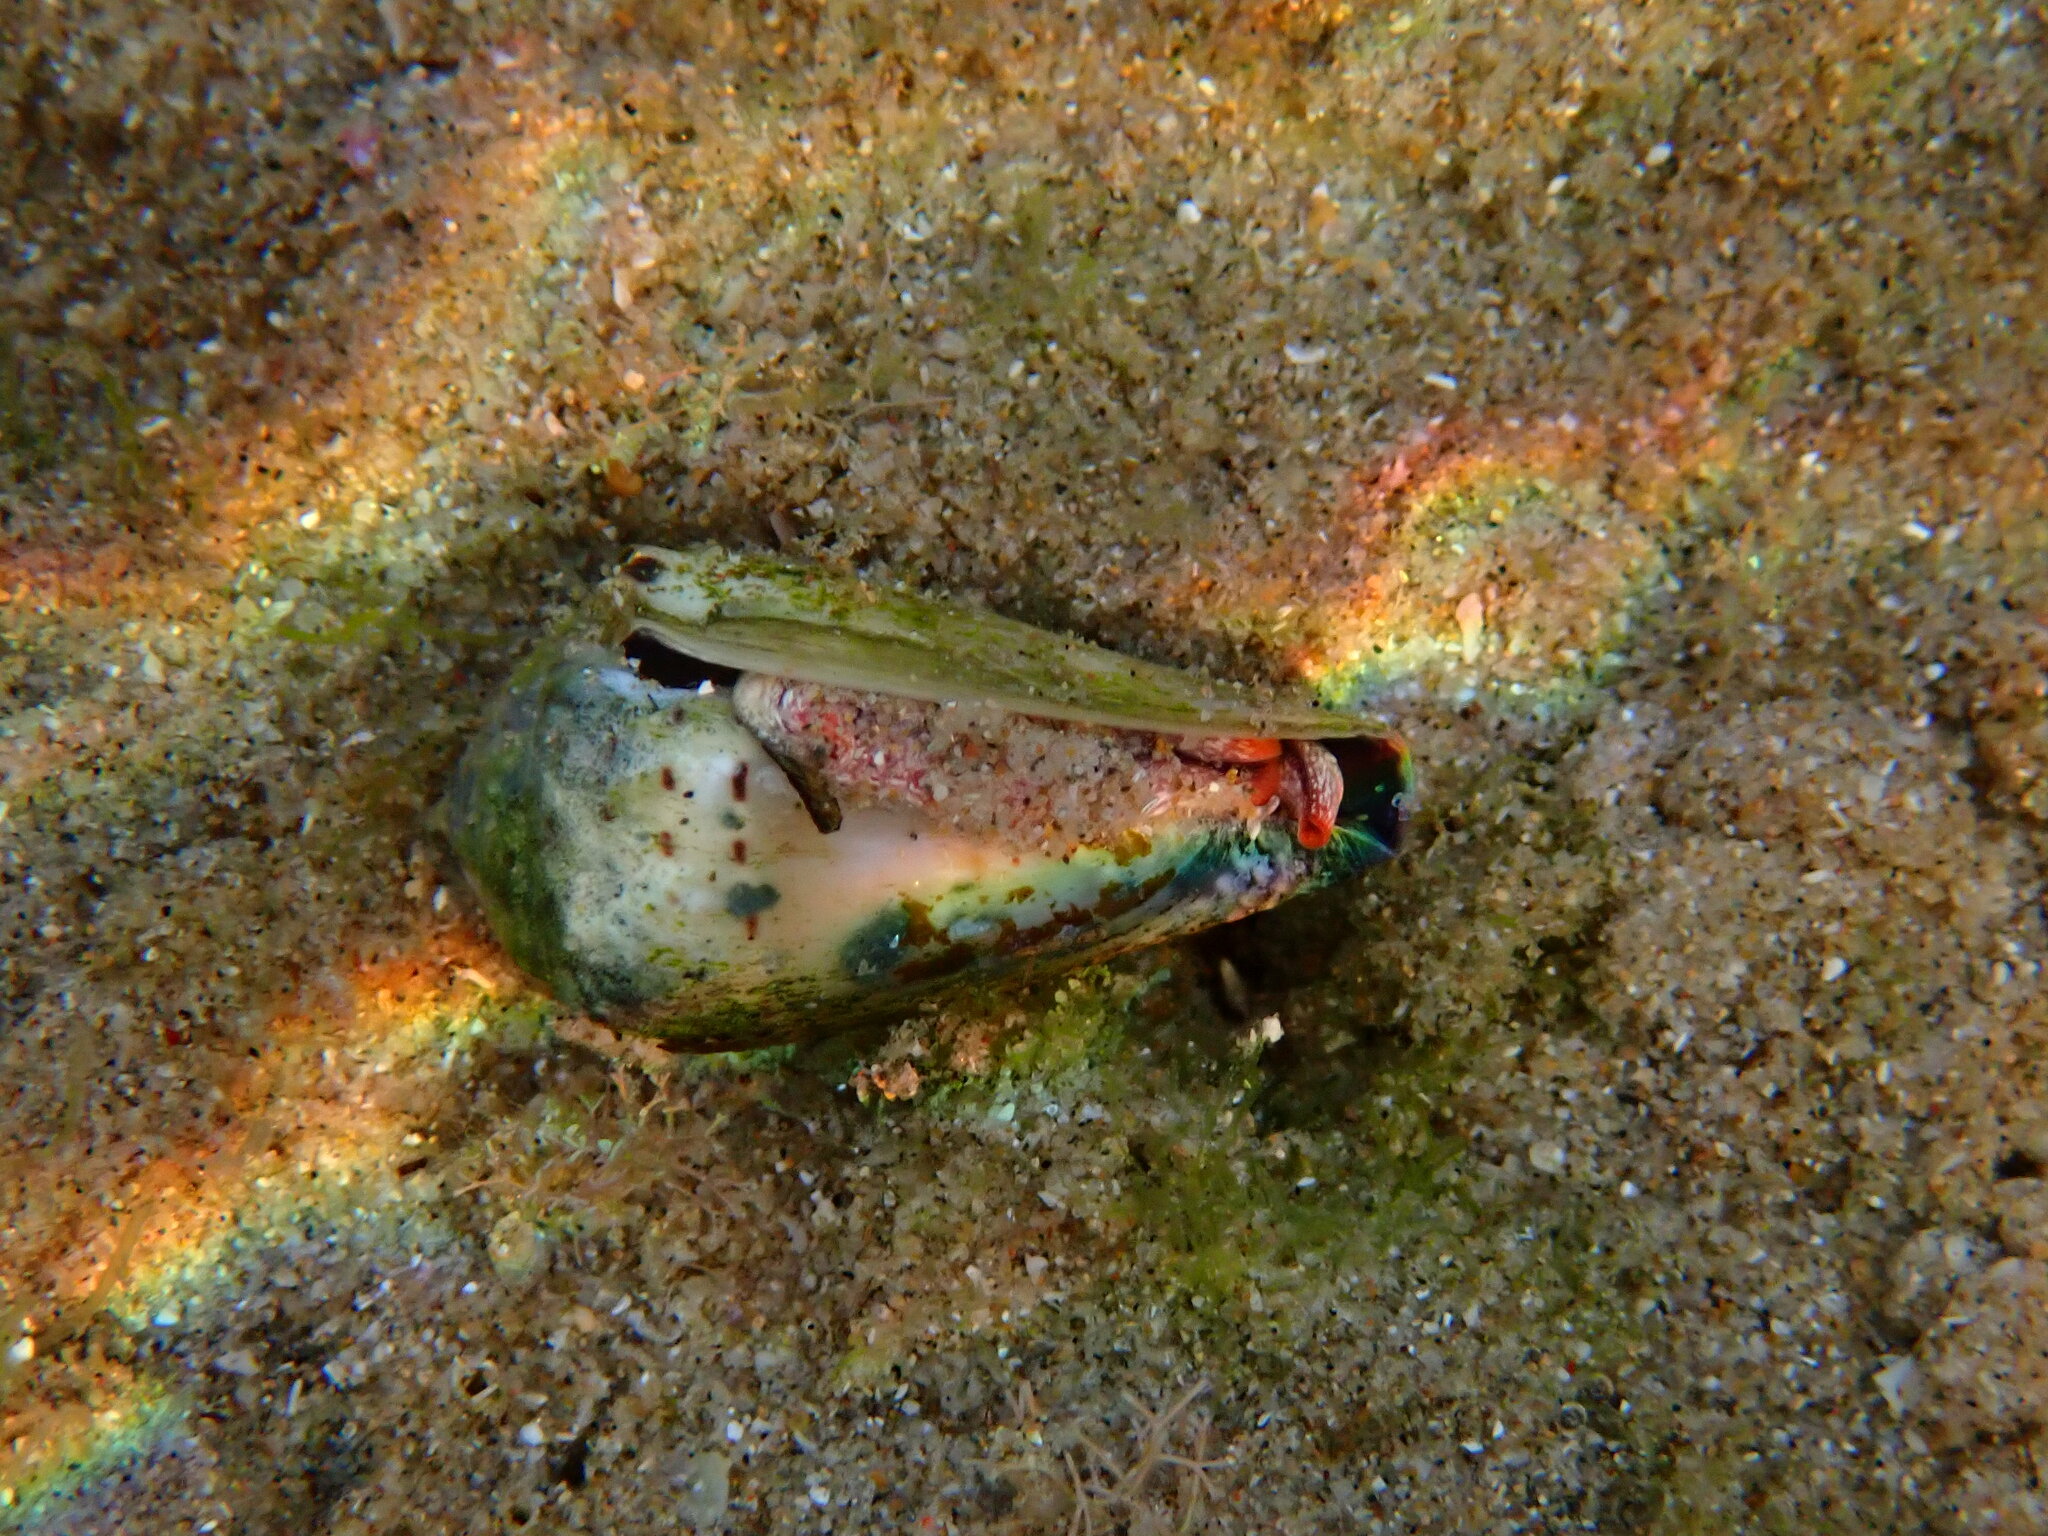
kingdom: Animalia
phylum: Mollusca
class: Gastropoda
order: Neogastropoda
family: Conidae
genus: Conus
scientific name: Conus musicus
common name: Music cone
